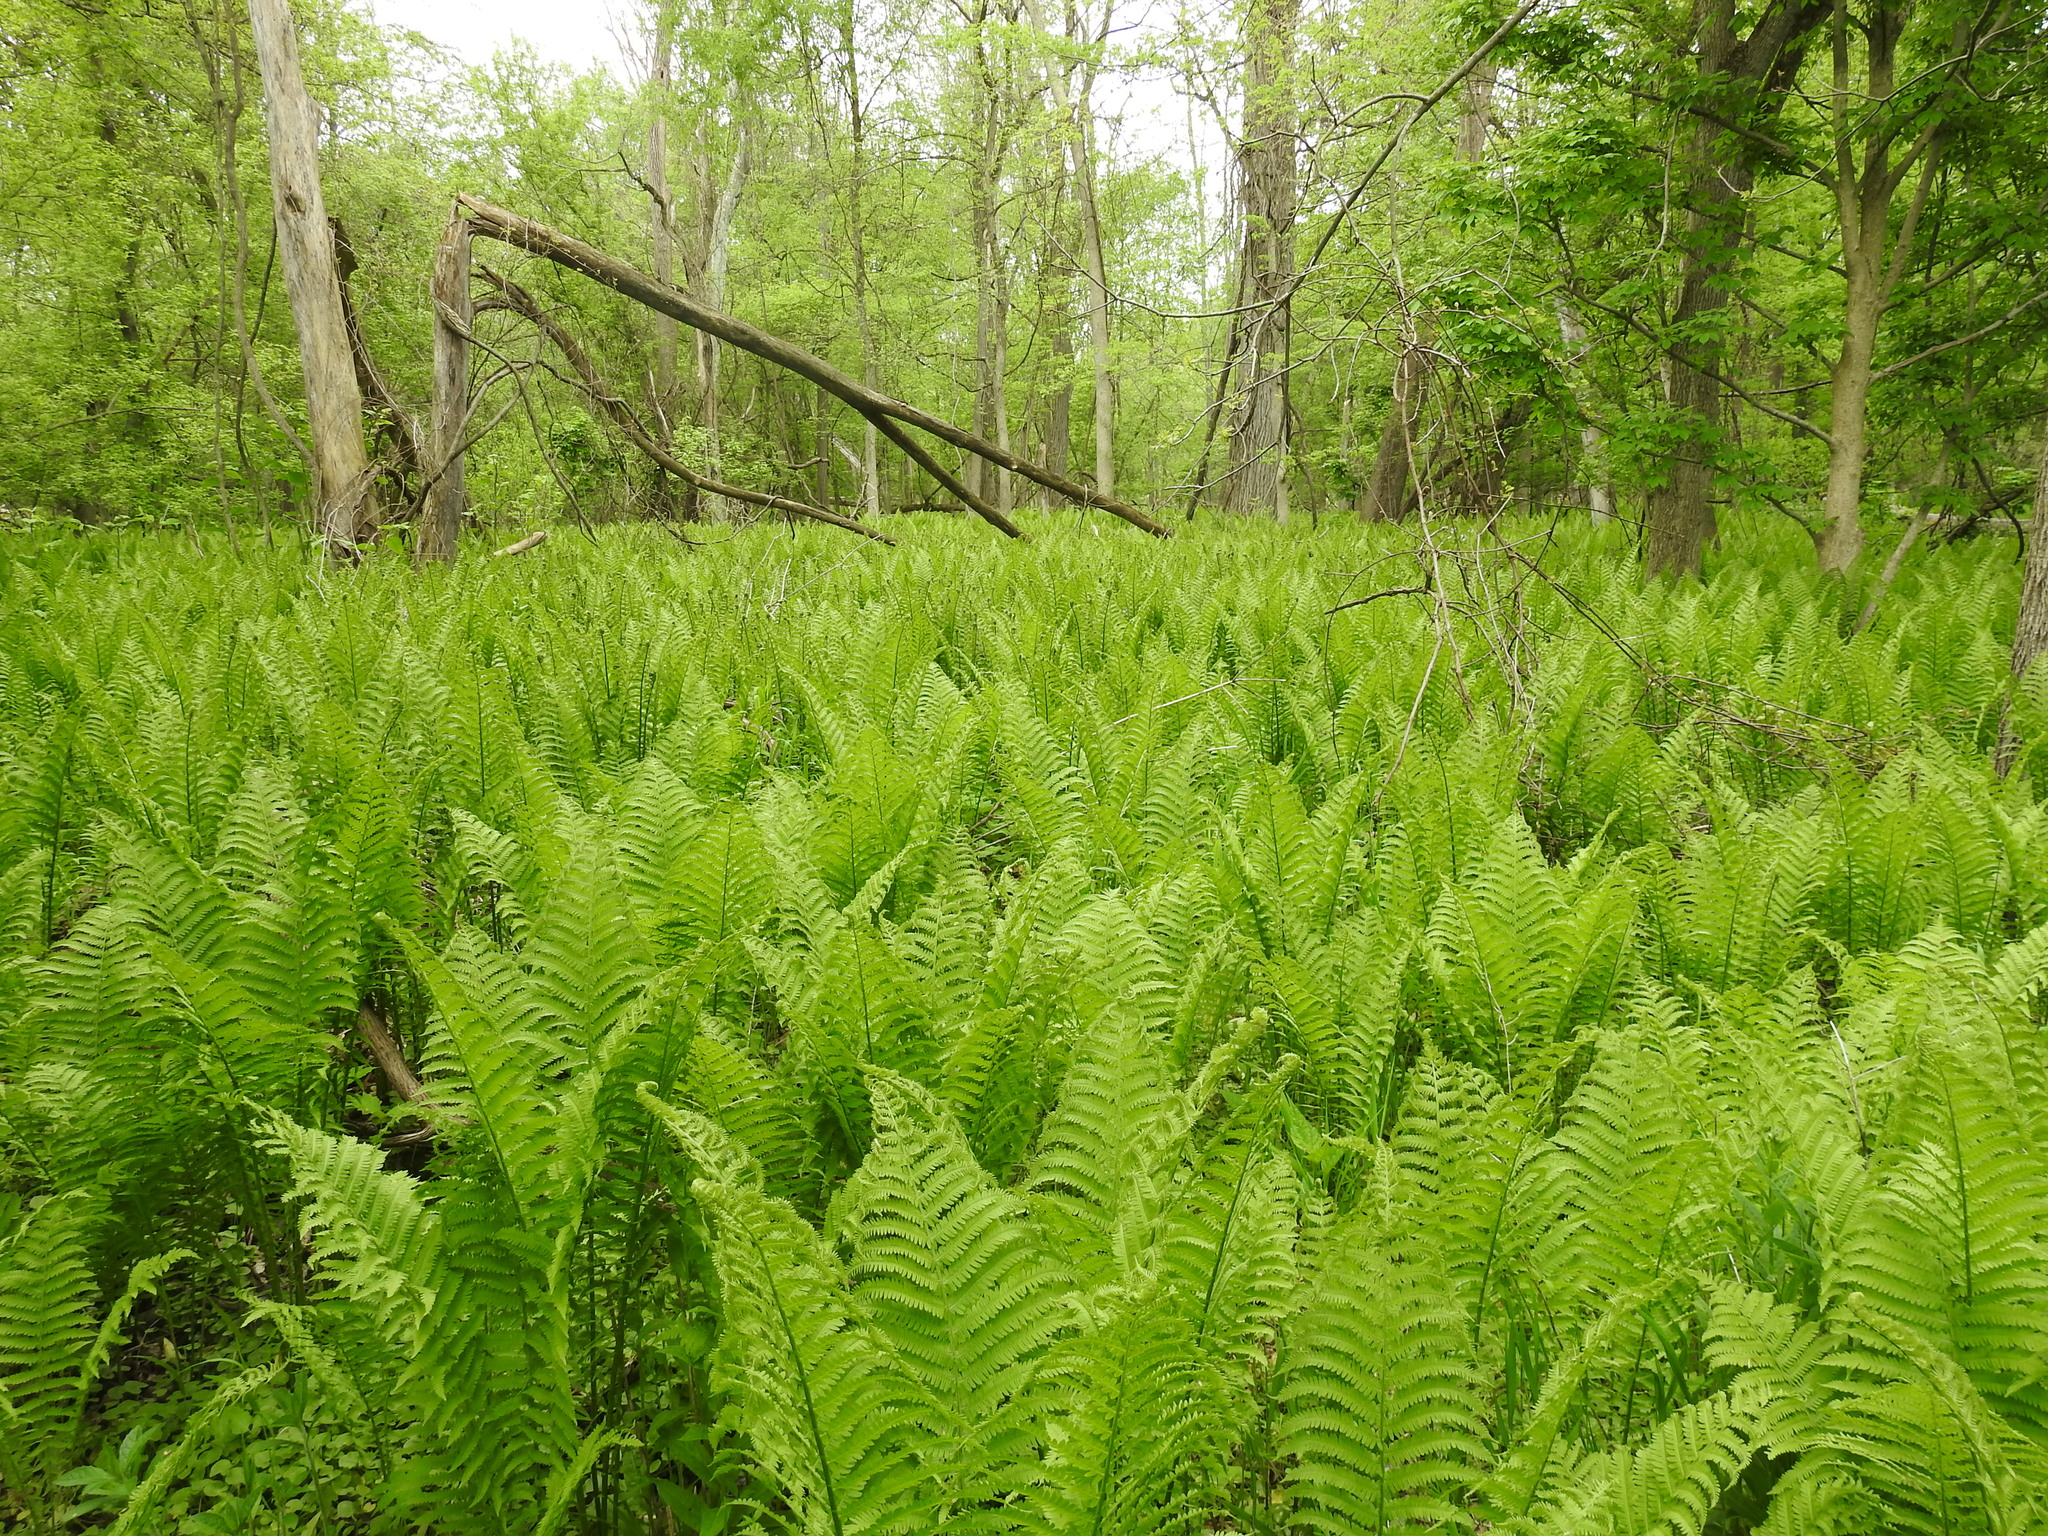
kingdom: Plantae
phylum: Tracheophyta
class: Polypodiopsida
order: Polypodiales
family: Onocleaceae
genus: Matteuccia
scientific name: Matteuccia struthiopteris
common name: Ostrich fern
